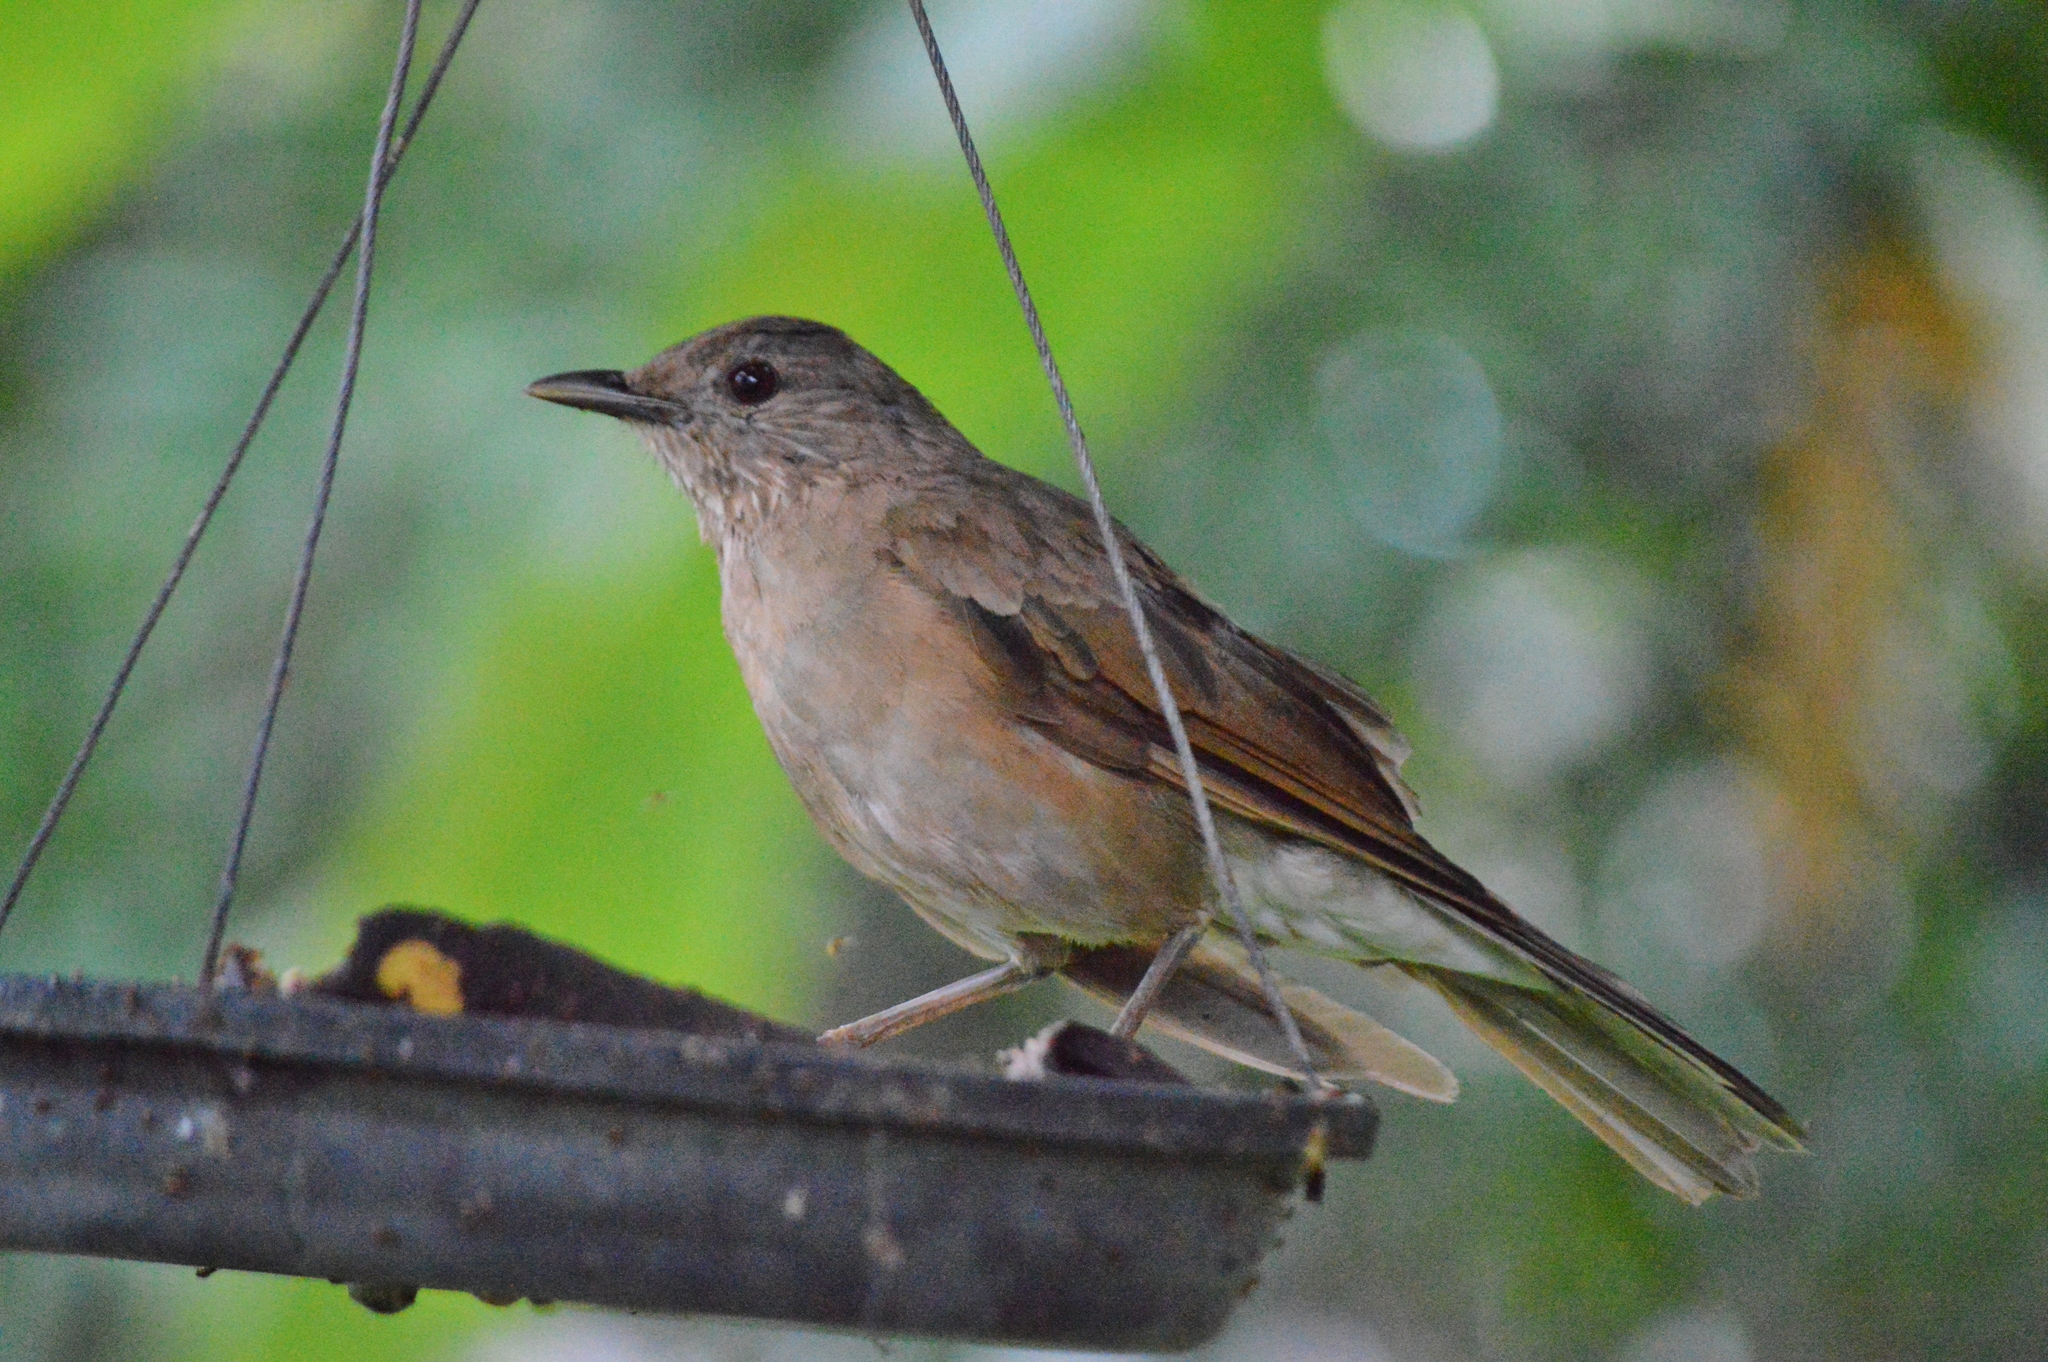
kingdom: Animalia
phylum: Chordata
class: Aves
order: Passeriformes
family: Turdidae
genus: Turdus
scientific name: Turdus leucomelas
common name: Pale-breasted thrush
